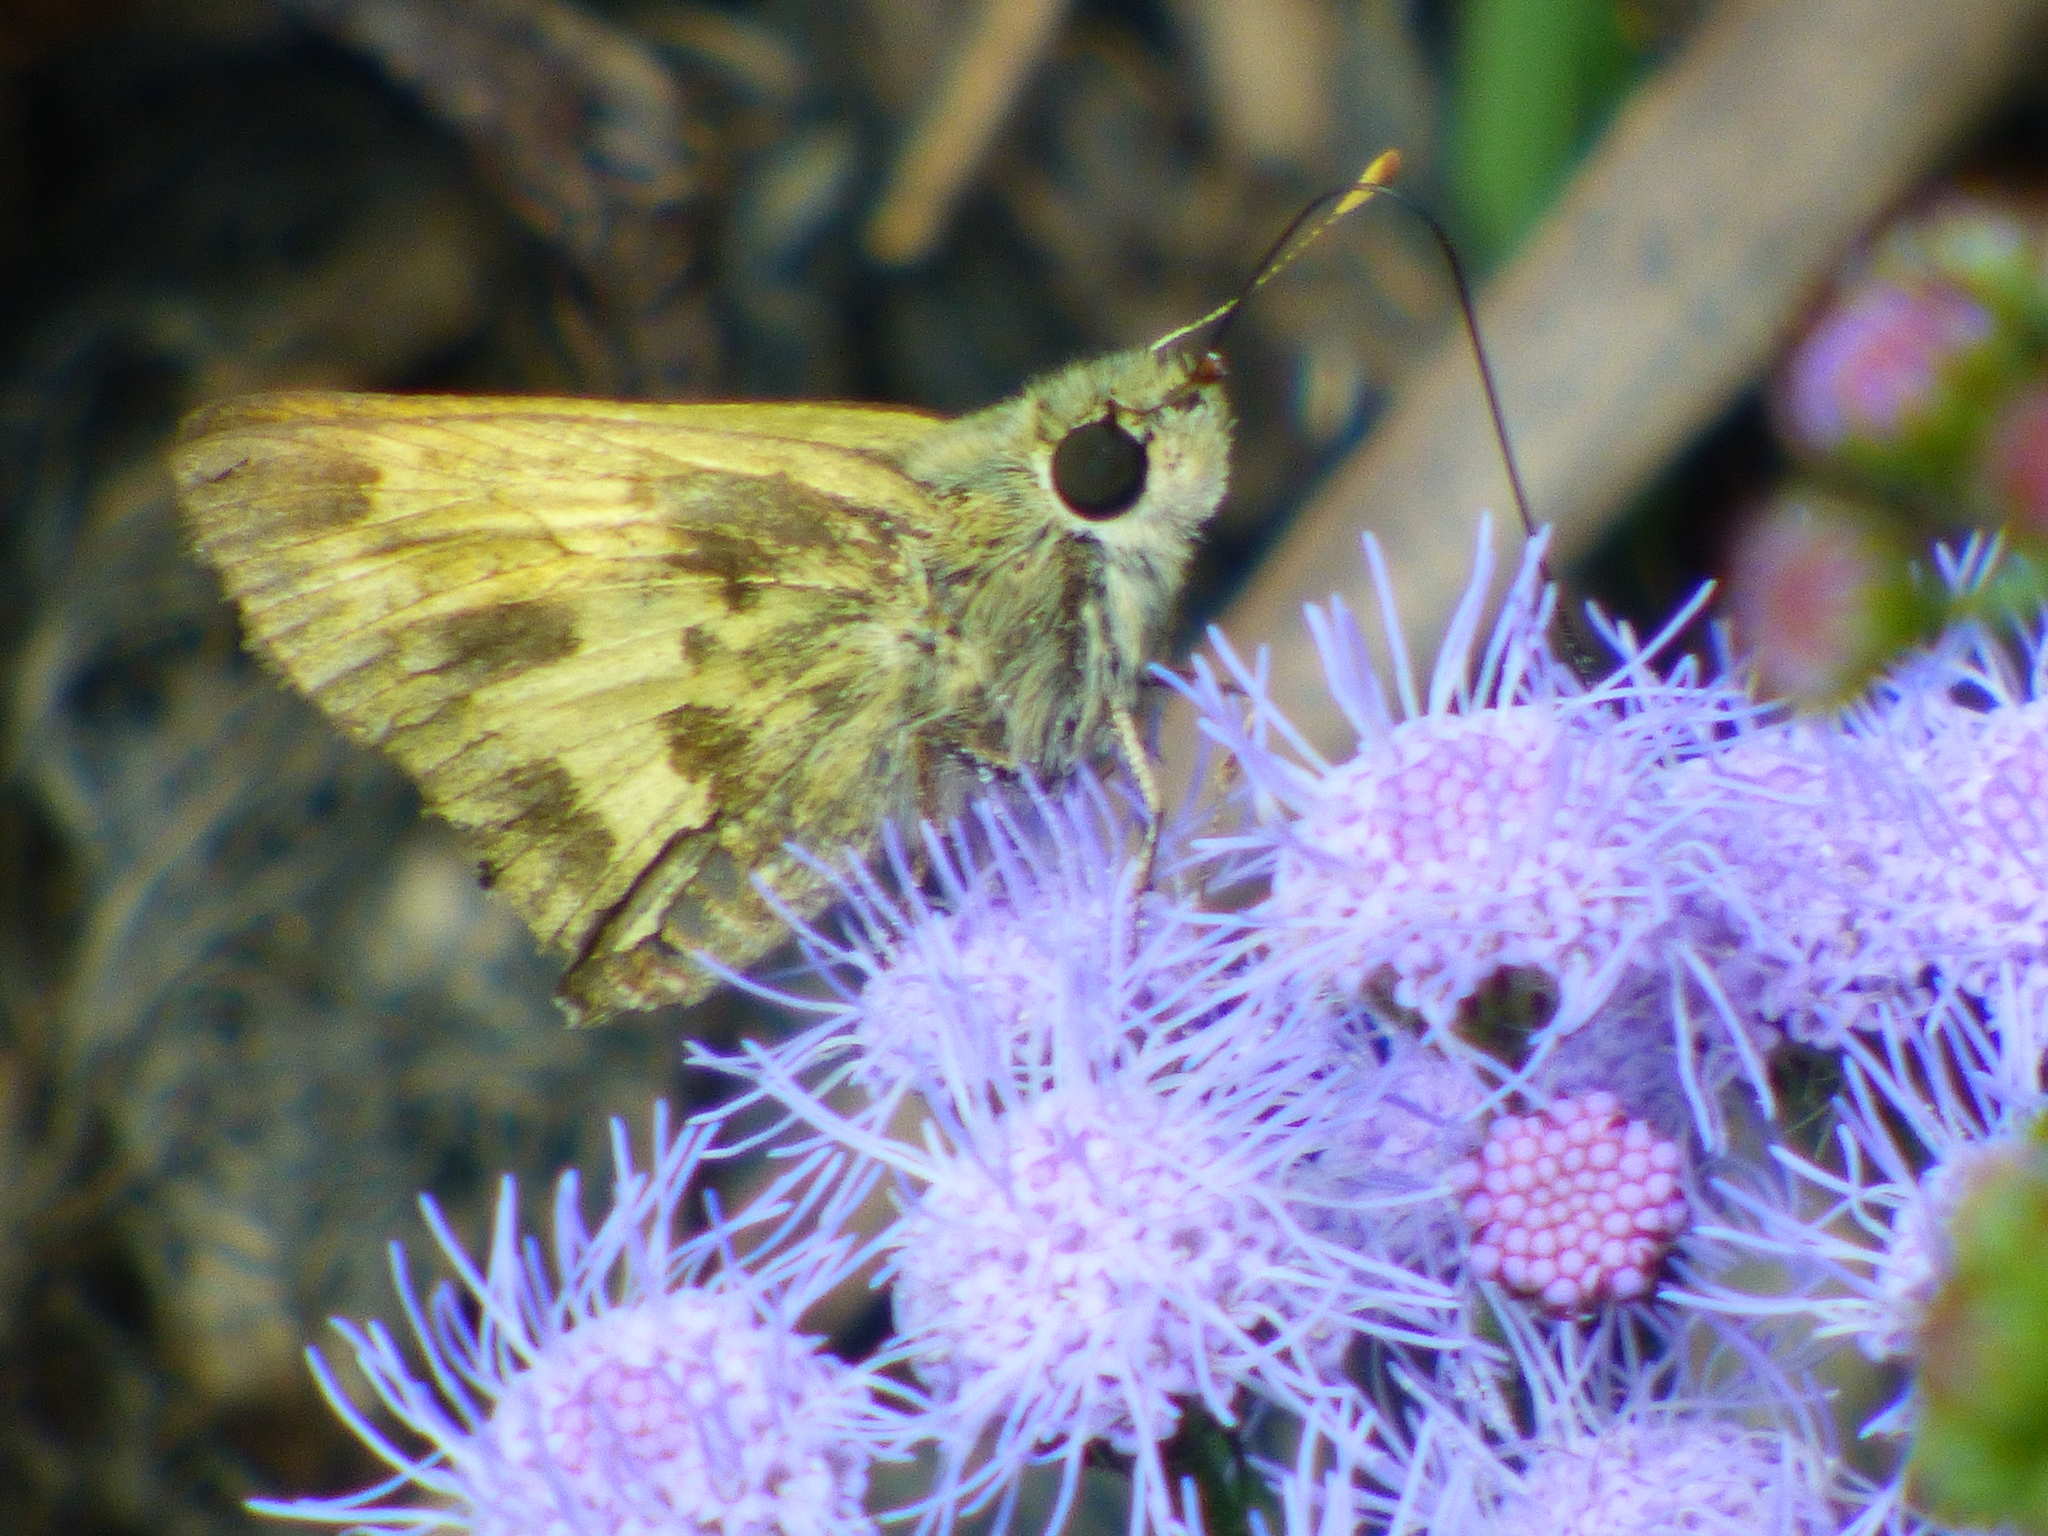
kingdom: Animalia
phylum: Arthropoda
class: Insecta
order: Lepidoptera
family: Hesperiidae
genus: Polites
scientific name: Polites vibex
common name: Whirlabout
